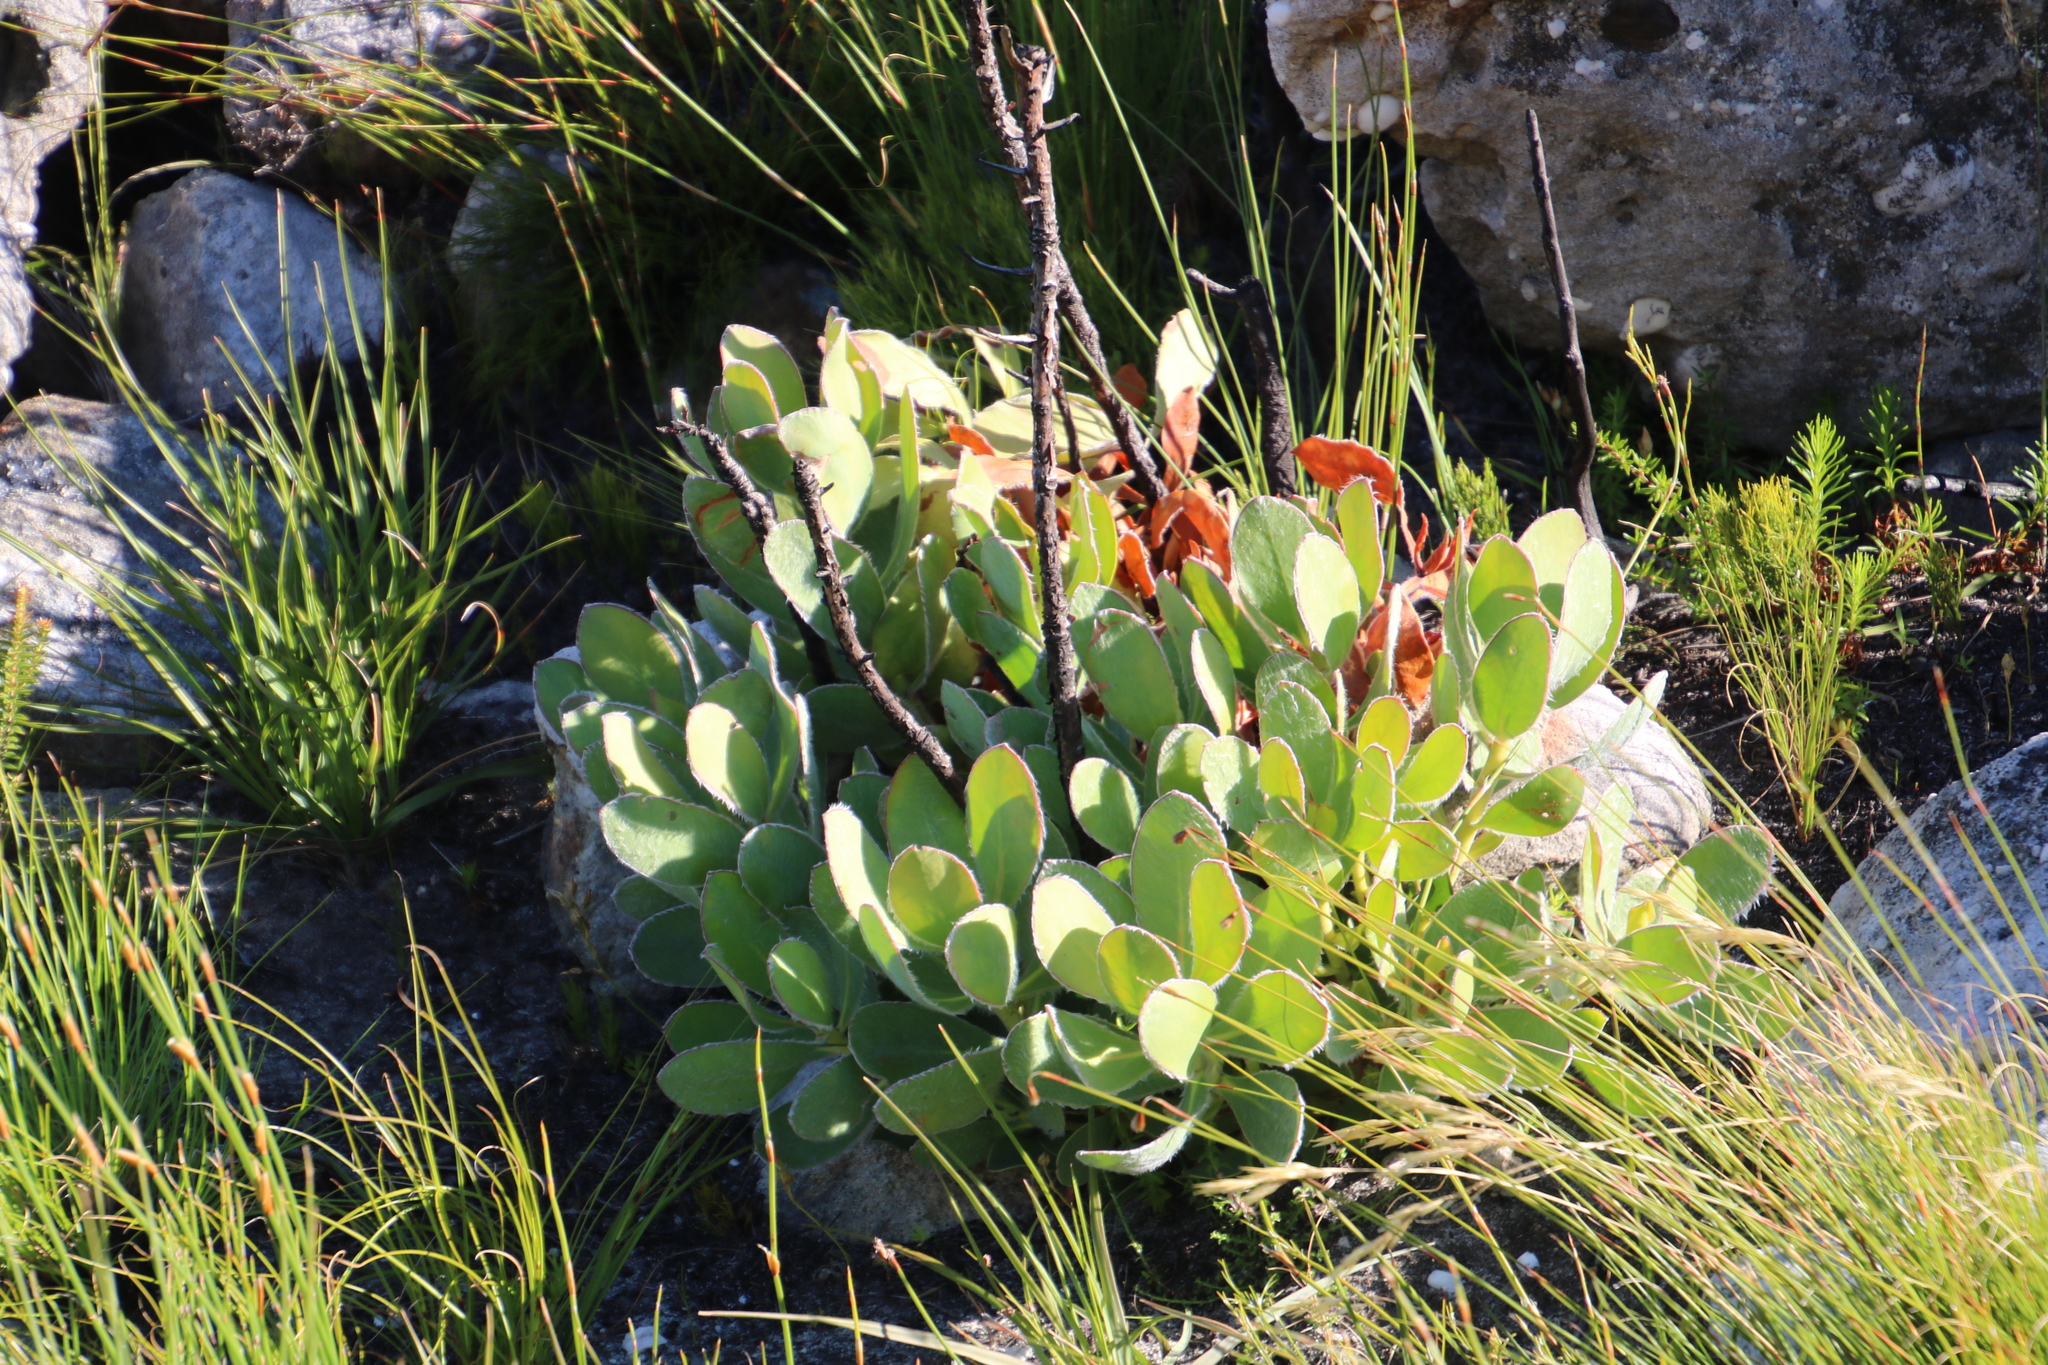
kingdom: Plantae
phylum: Tracheophyta
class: Magnoliopsida
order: Proteales
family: Proteaceae
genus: Protea
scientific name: Protea speciosa
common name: Brown-beard sugarbush
